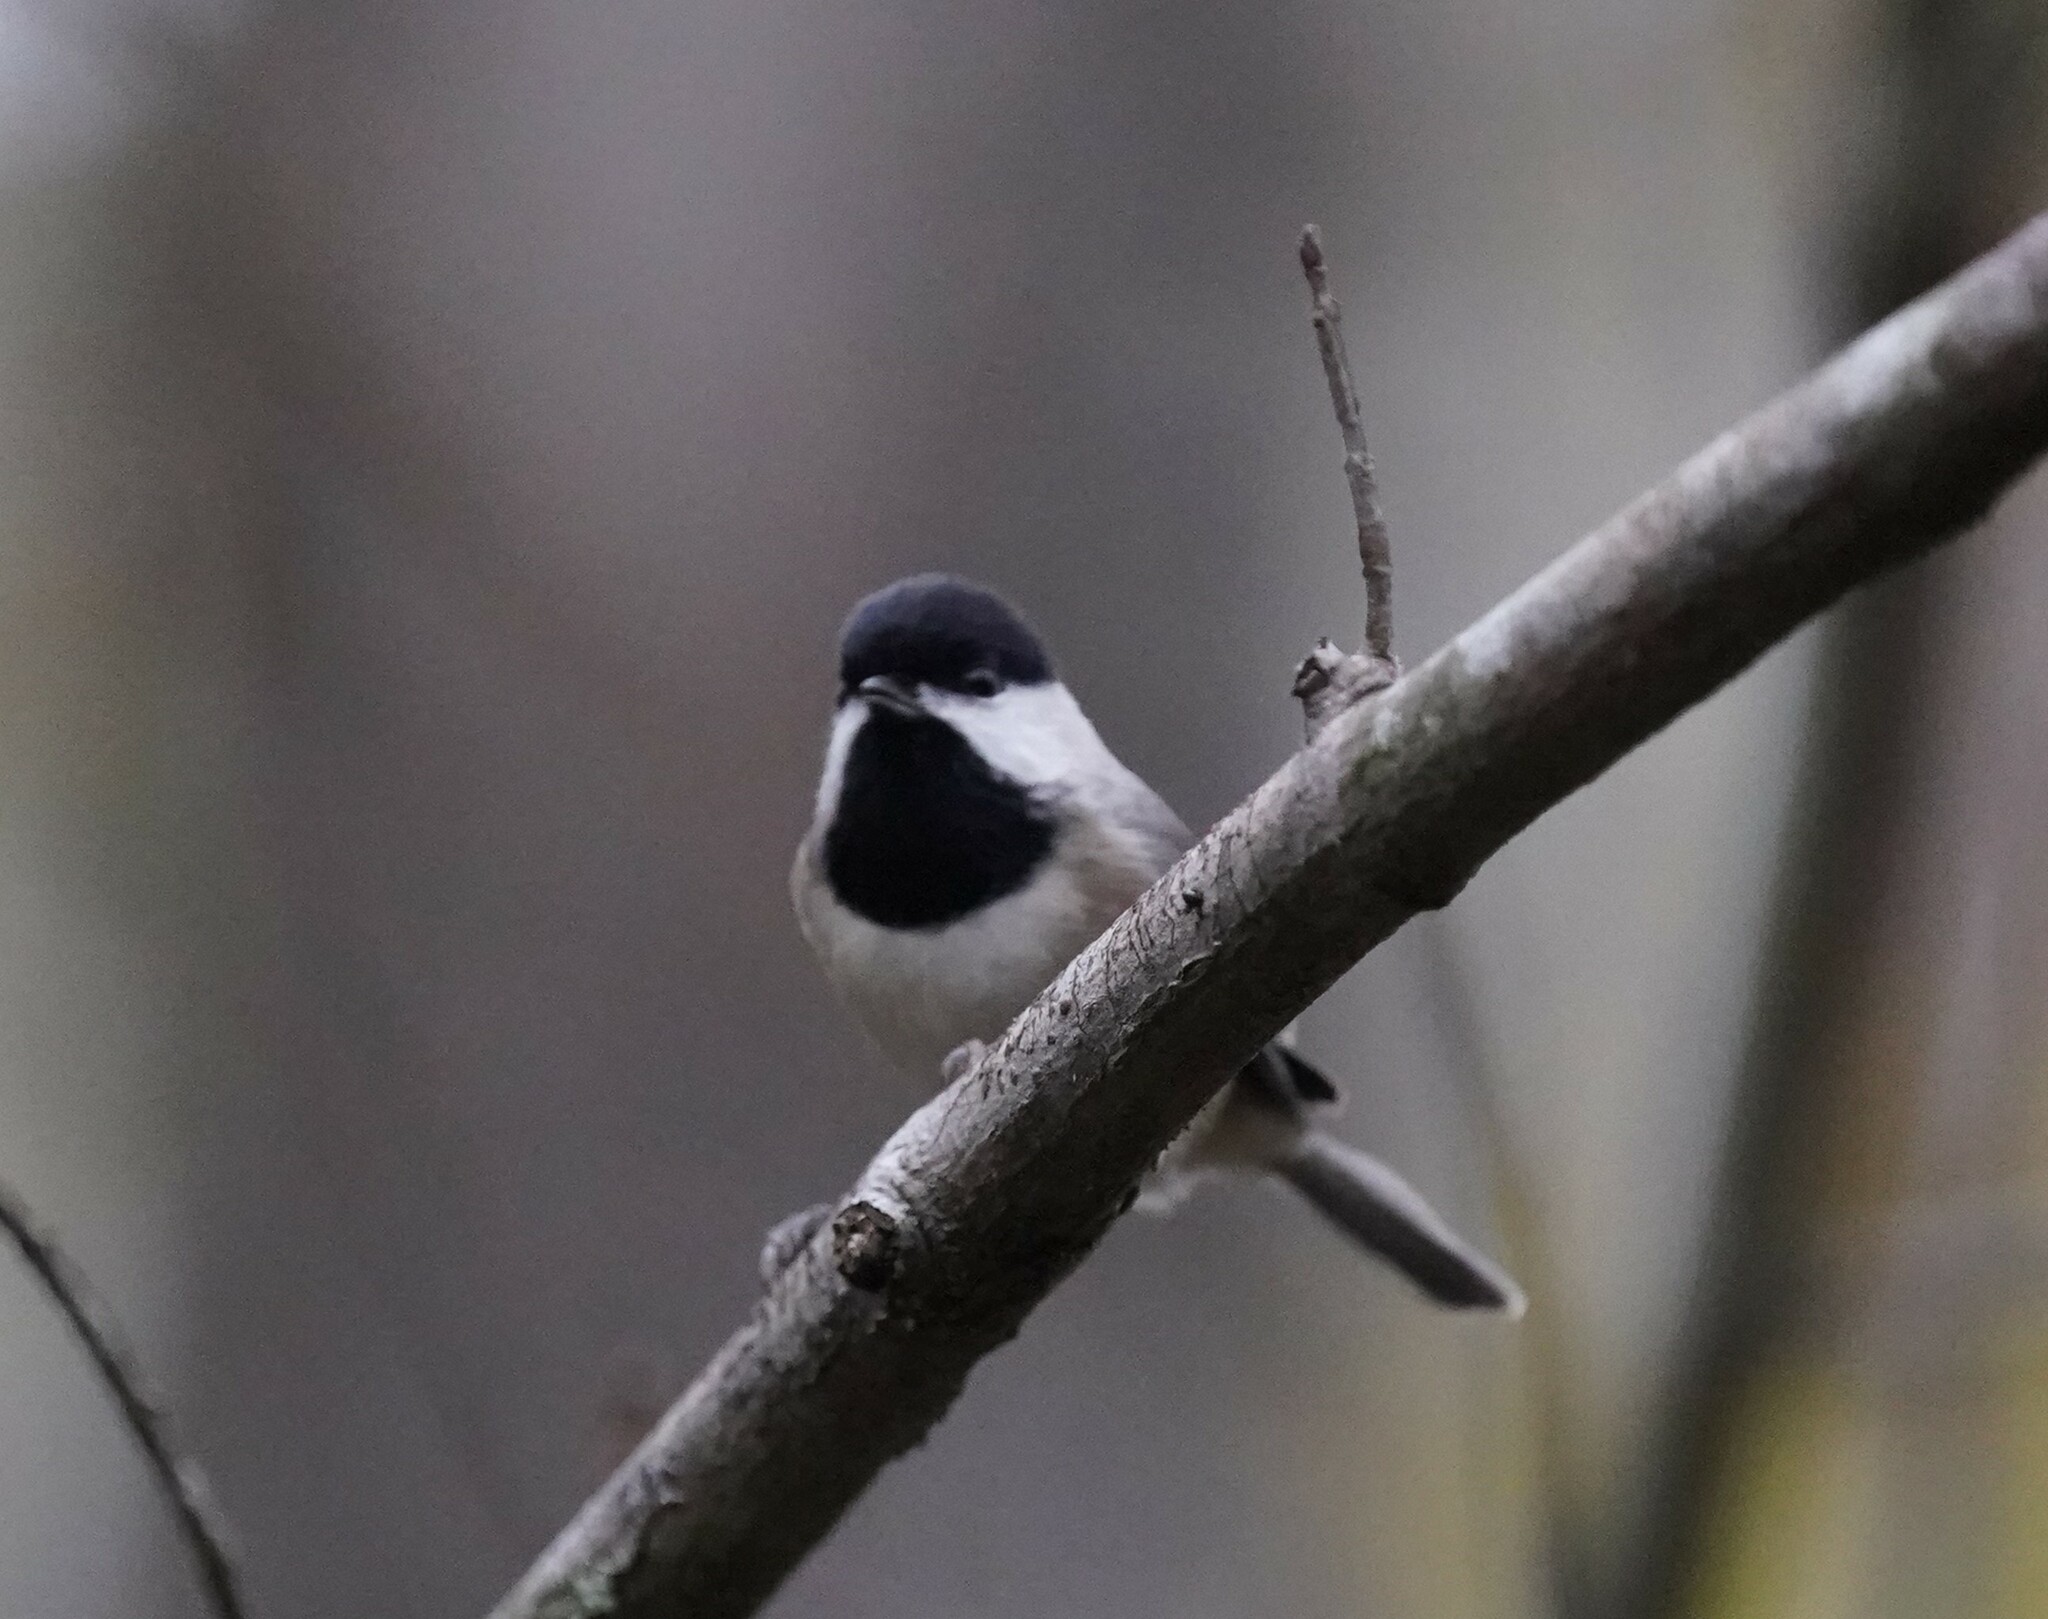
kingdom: Animalia
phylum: Chordata
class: Aves
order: Passeriformes
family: Paridae
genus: Poecile
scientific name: Poecile carolinensis
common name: Carolina chickadee
